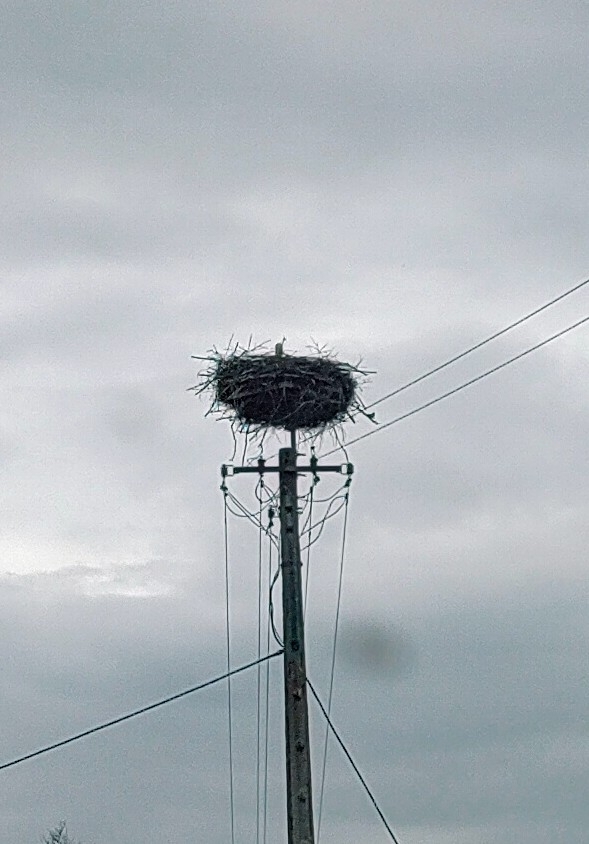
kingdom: Animalia
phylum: Chordata
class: Aves
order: Ciconiiformes
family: Ciconiidae
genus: Ciconia
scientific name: Ciconia ciconia
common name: White stork
